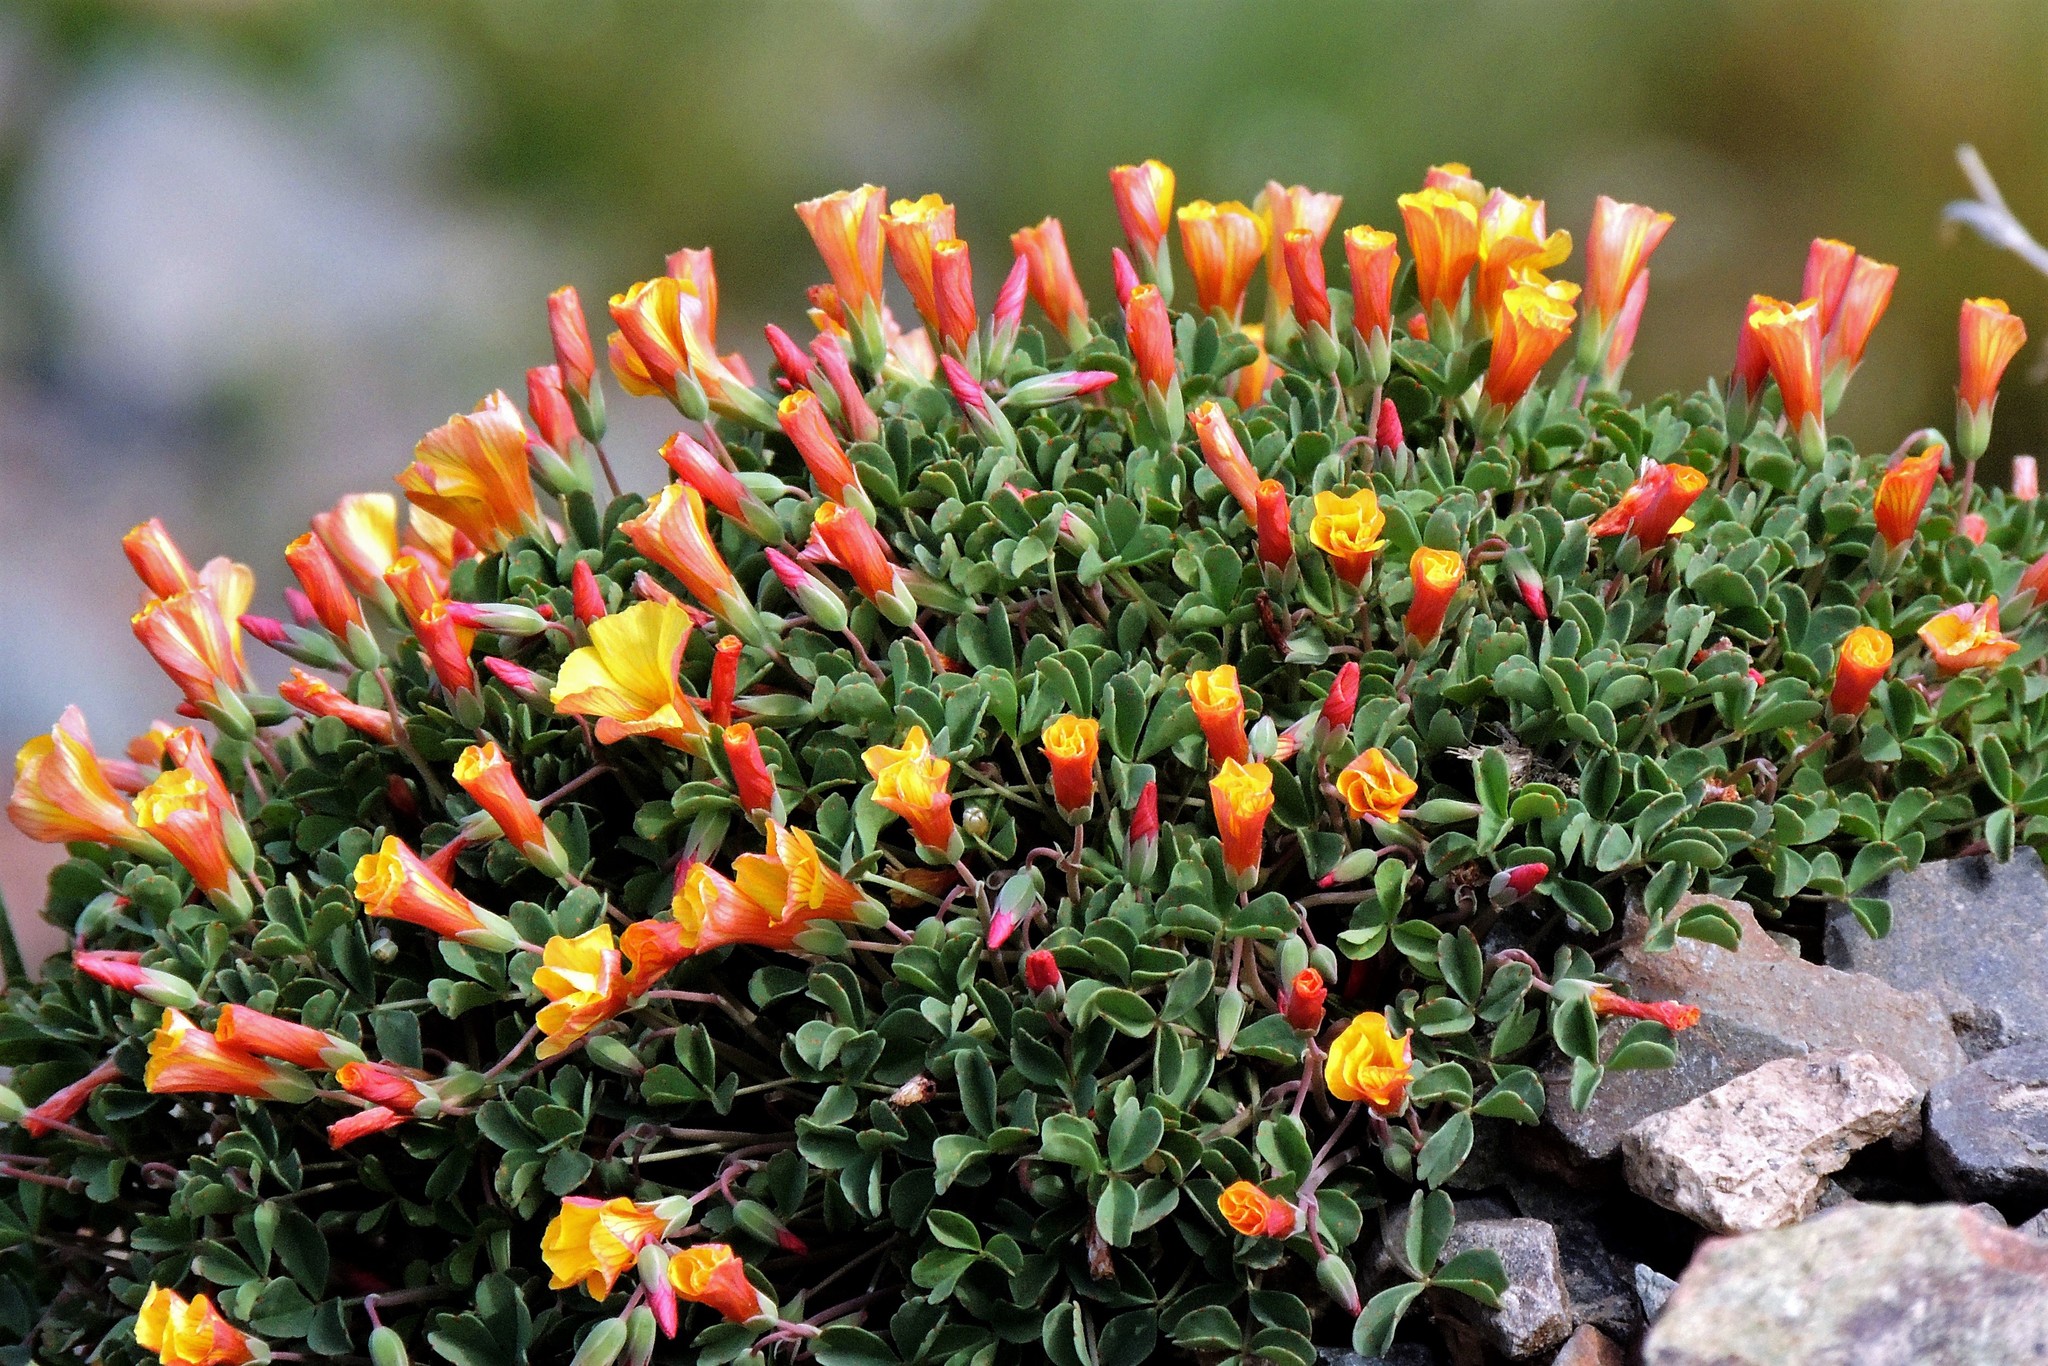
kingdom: Plantae
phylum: Tracheophyta
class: Magnoliopsida
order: Oxalidales
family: Oxalidaceae
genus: Oxalis
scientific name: Oxalis subacaulis
